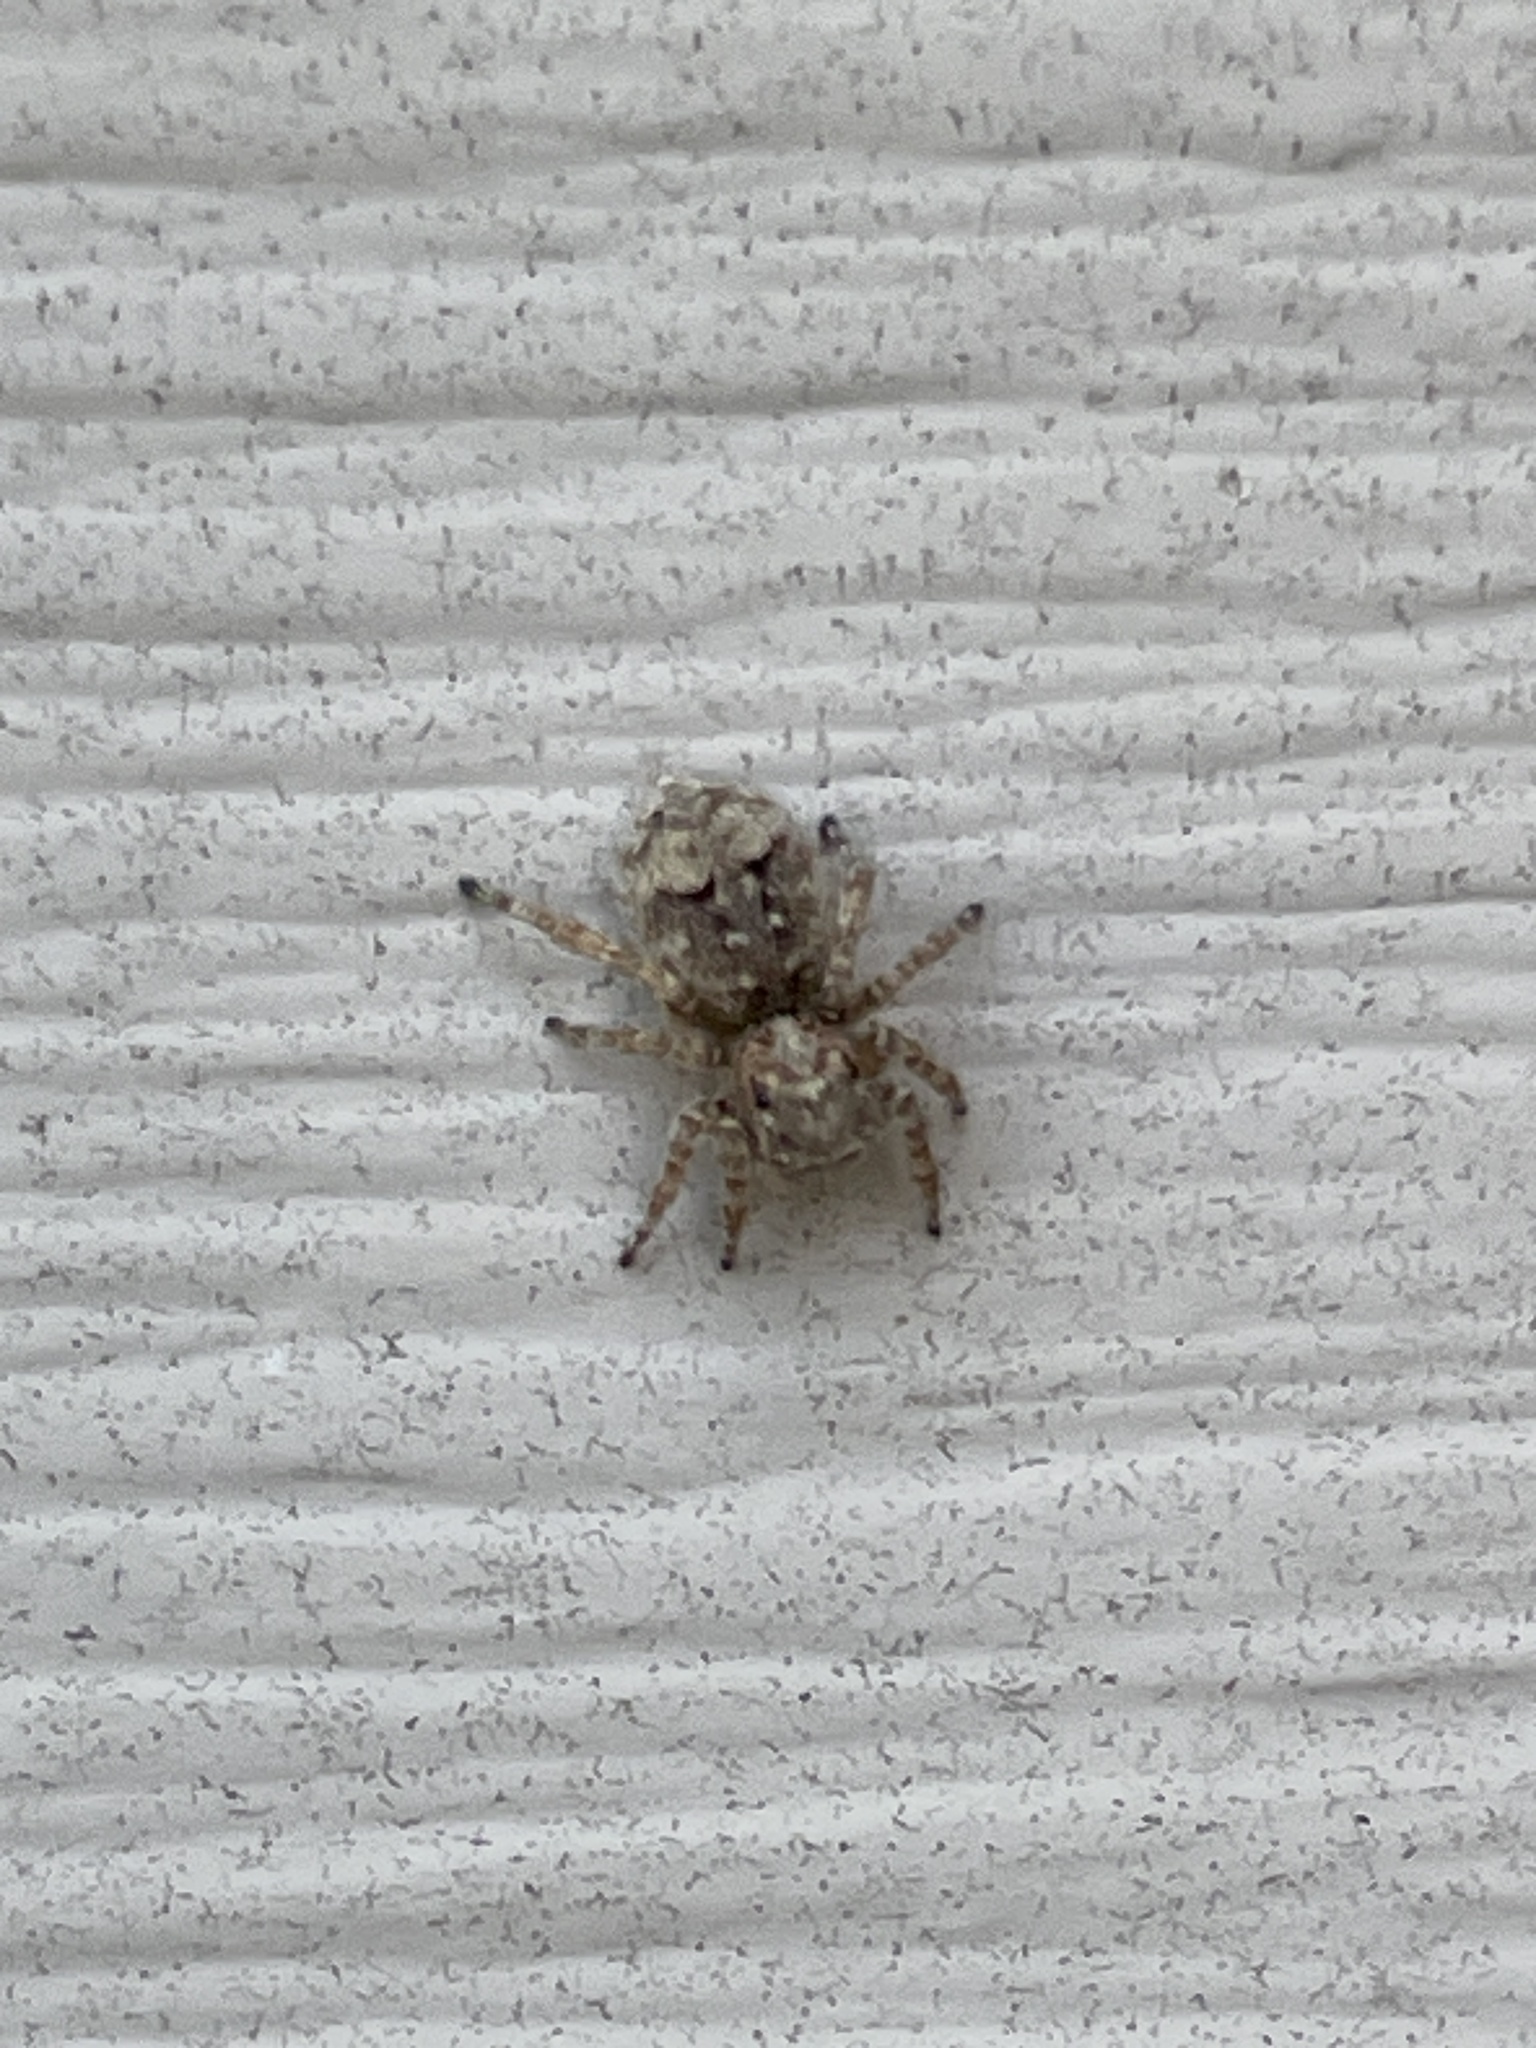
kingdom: Animalia
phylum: Arthropoda
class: Arachnida
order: Araneae
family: Salticidae
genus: Attulus
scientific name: Attulus fasciger
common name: Asiatic wall jumping spider
